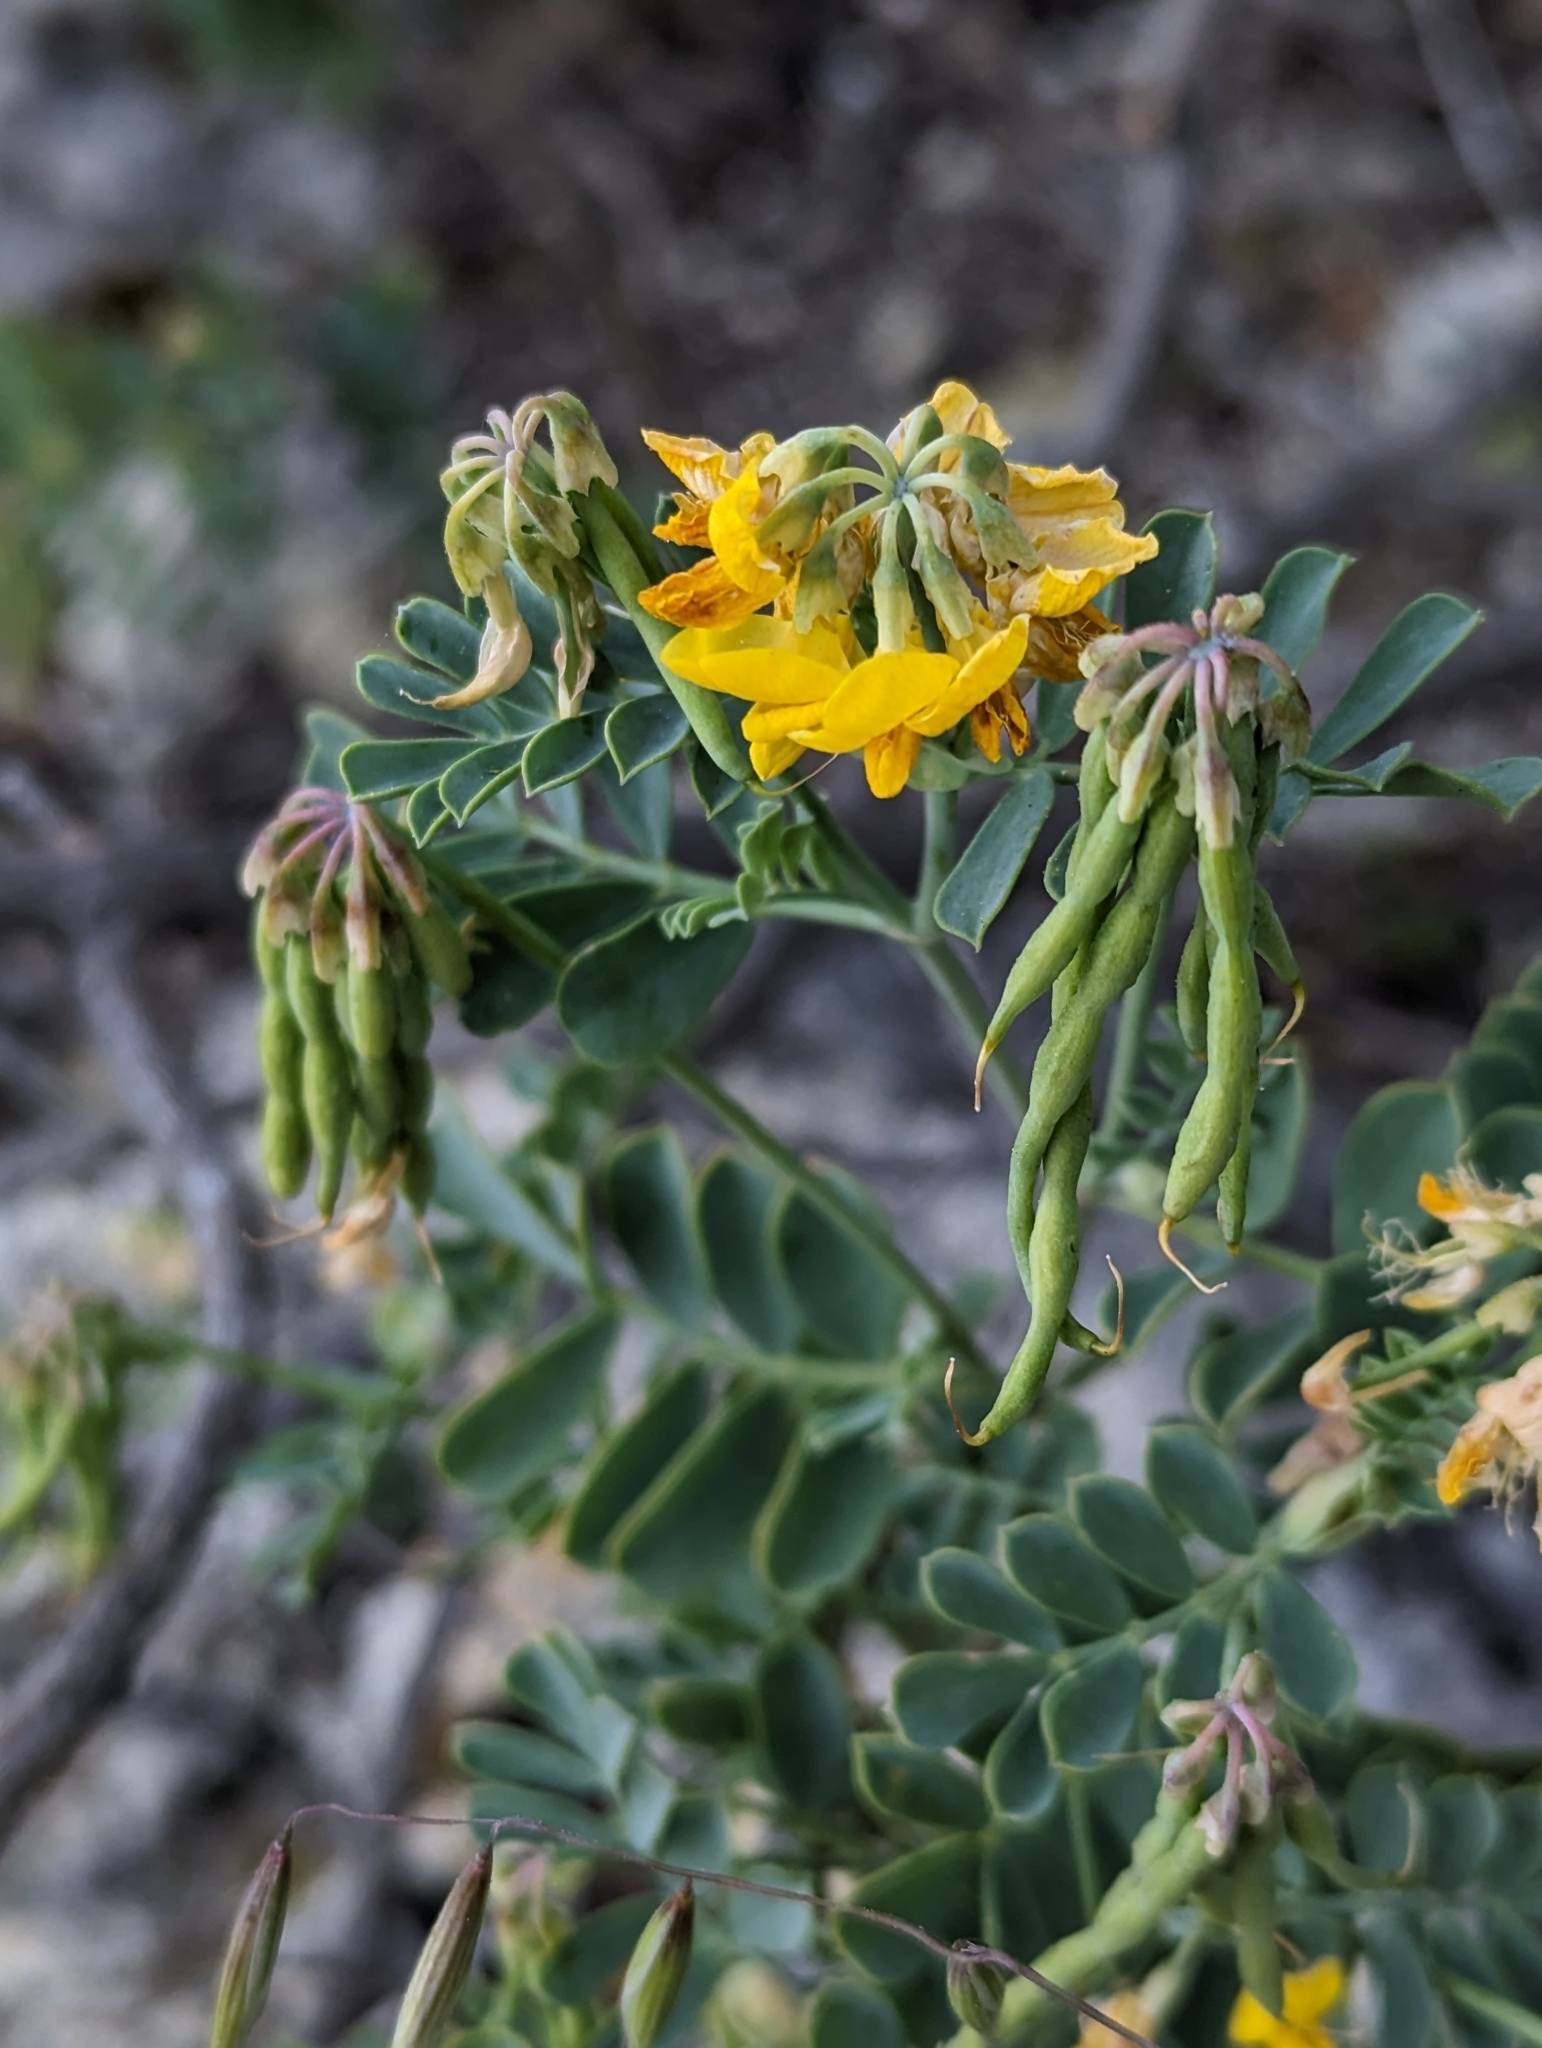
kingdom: Plantae
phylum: Tracheophyta
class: Magnoliopsida
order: Fabales
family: Fabaceae
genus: Coronilla
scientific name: Coronilla valentina
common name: Shrubby scorpion-vetch
